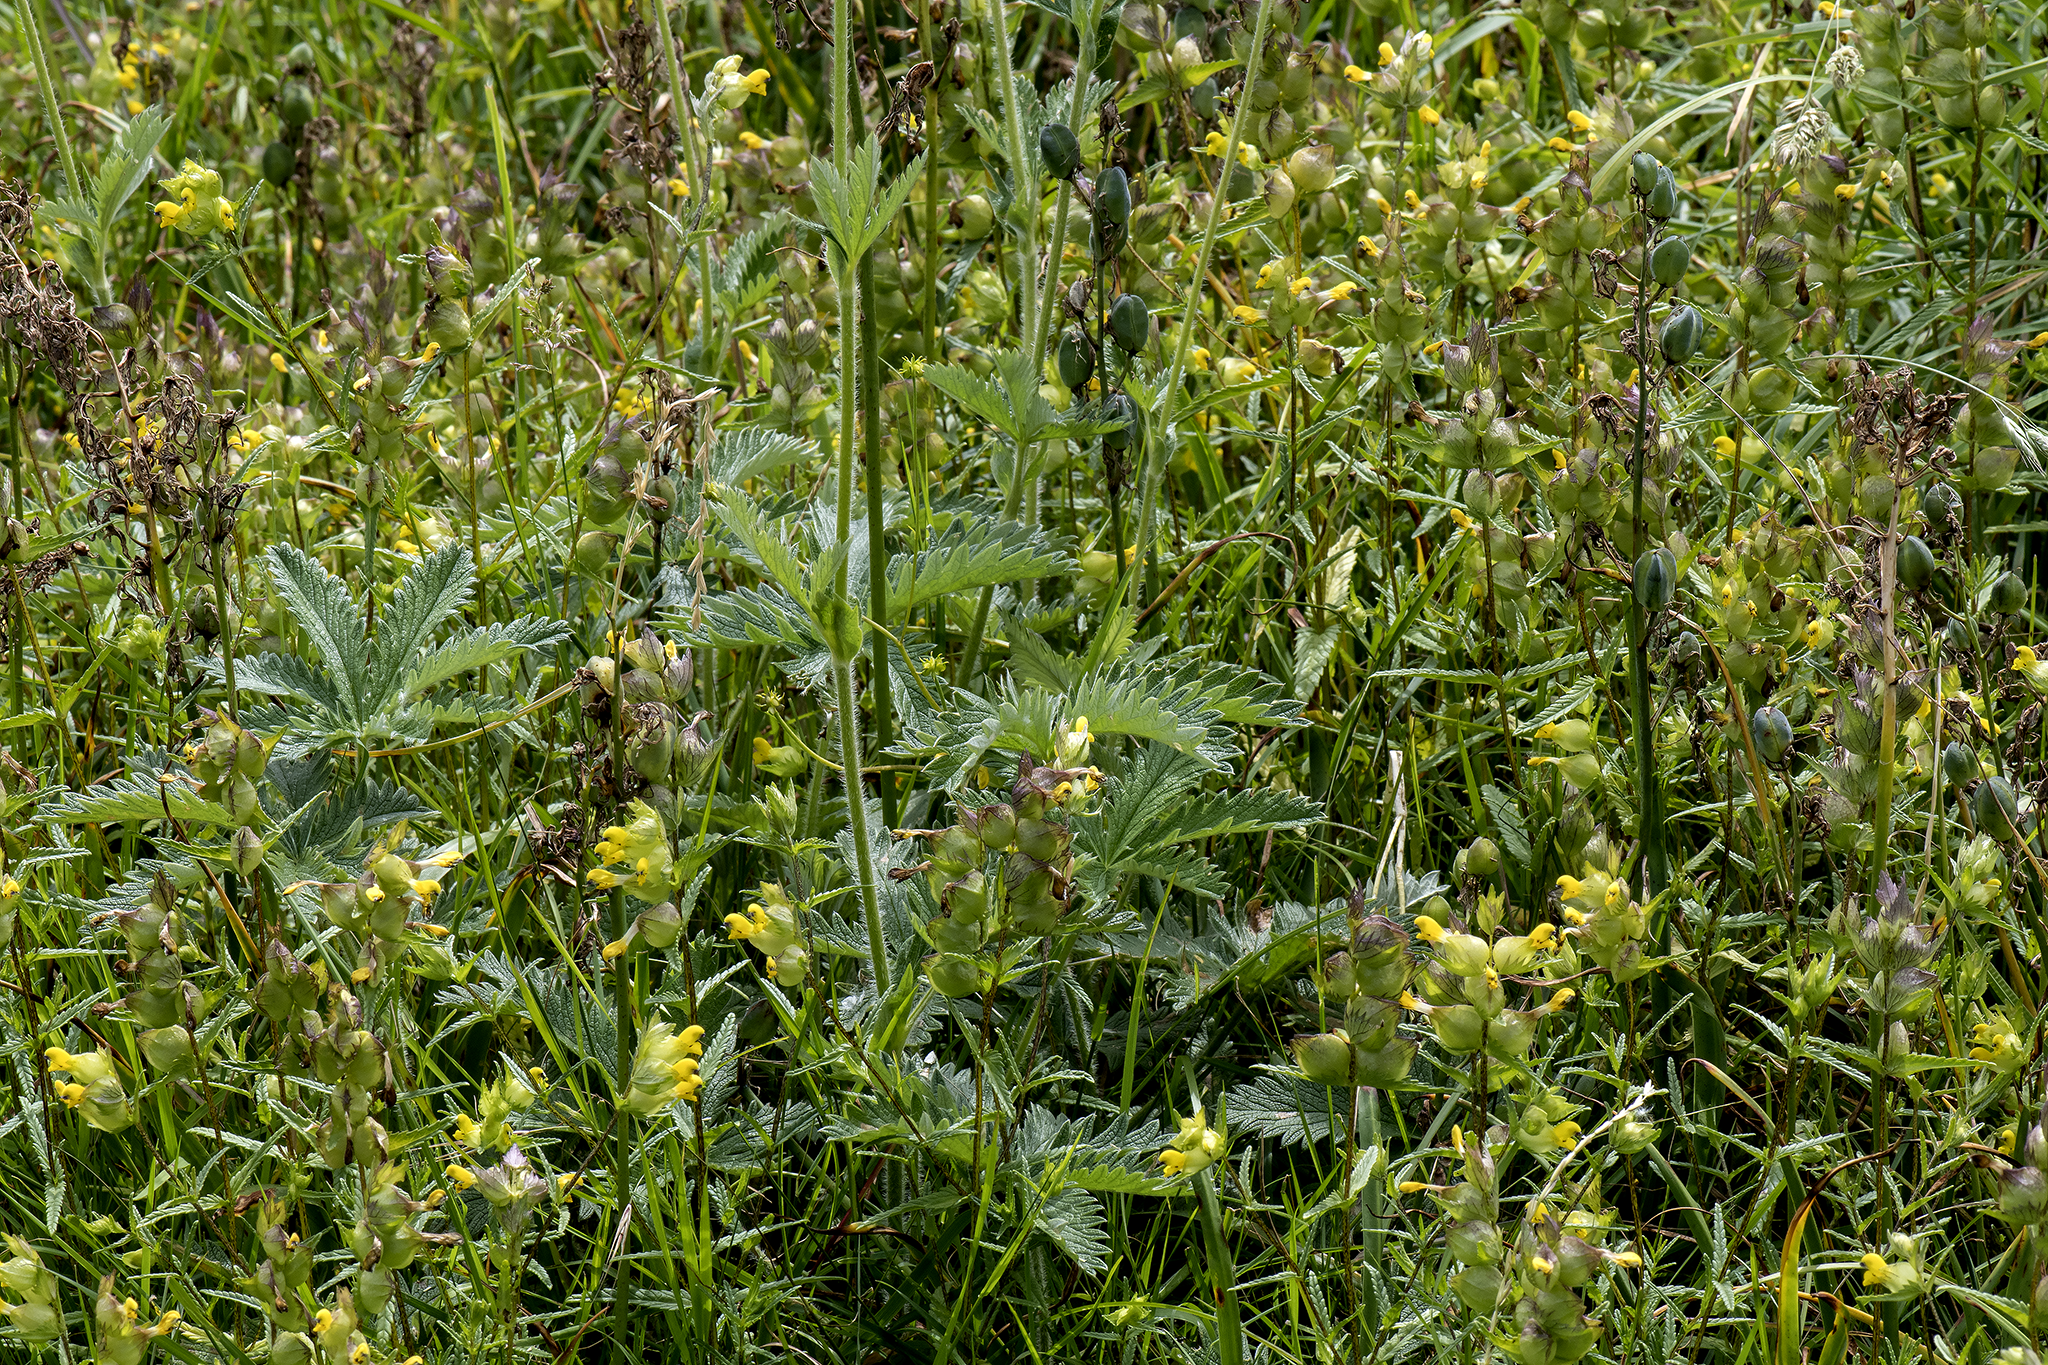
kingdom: Plantae
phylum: Tracheophyta
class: Magnoliopsida
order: Rosales
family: Rosaceae
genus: Potentilla
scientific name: Potentilla gracilis
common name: Graceful cinquefoil
